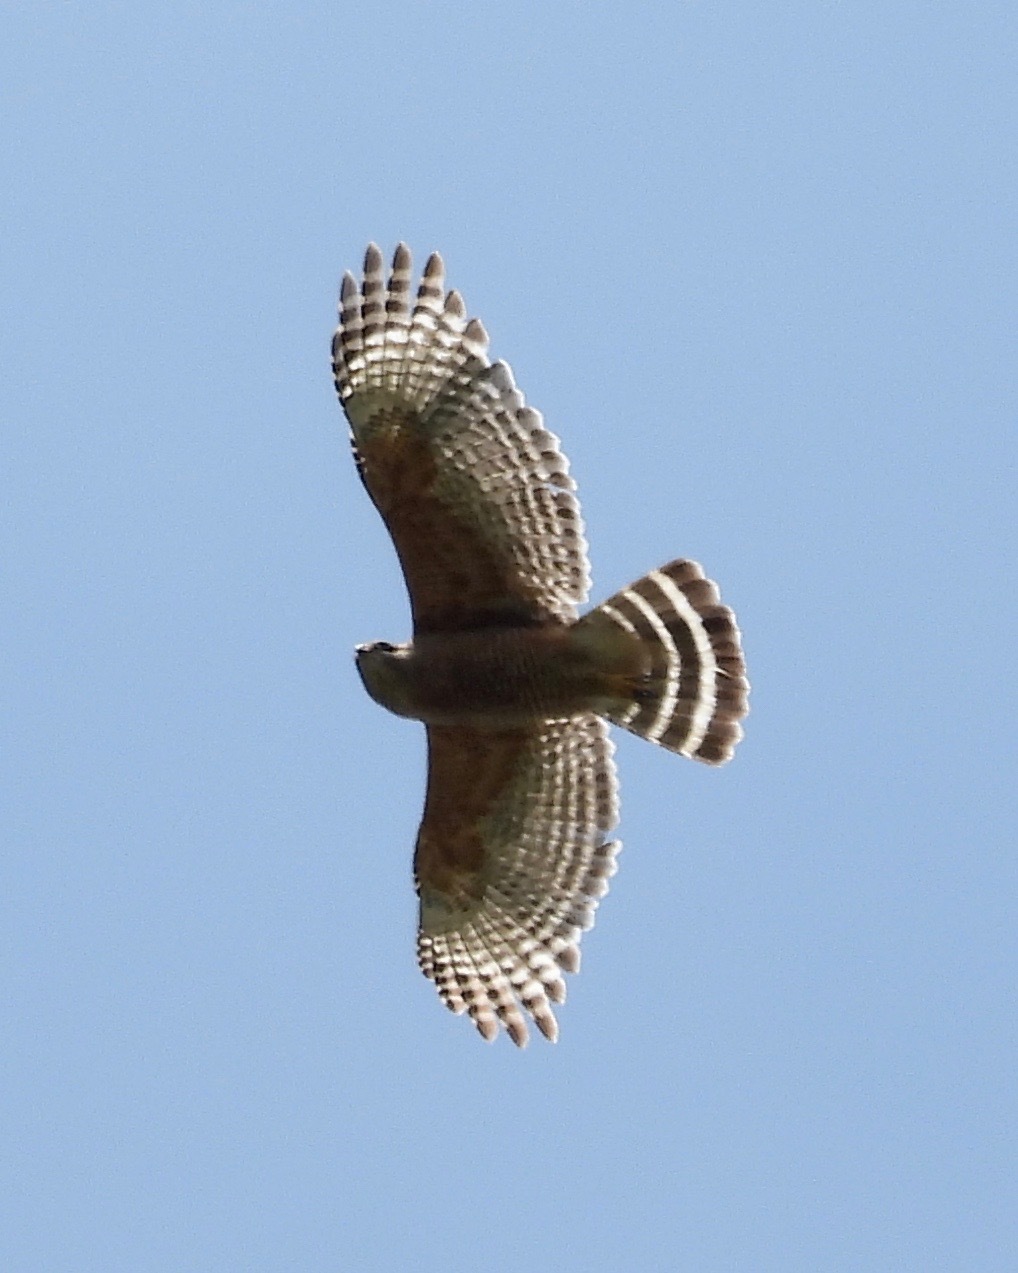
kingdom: Animalia
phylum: Chordata
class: Aves
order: Accipitriformes
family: Accipitridae
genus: Buteo
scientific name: Buteo lineatus
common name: Red-shouldered hawk
